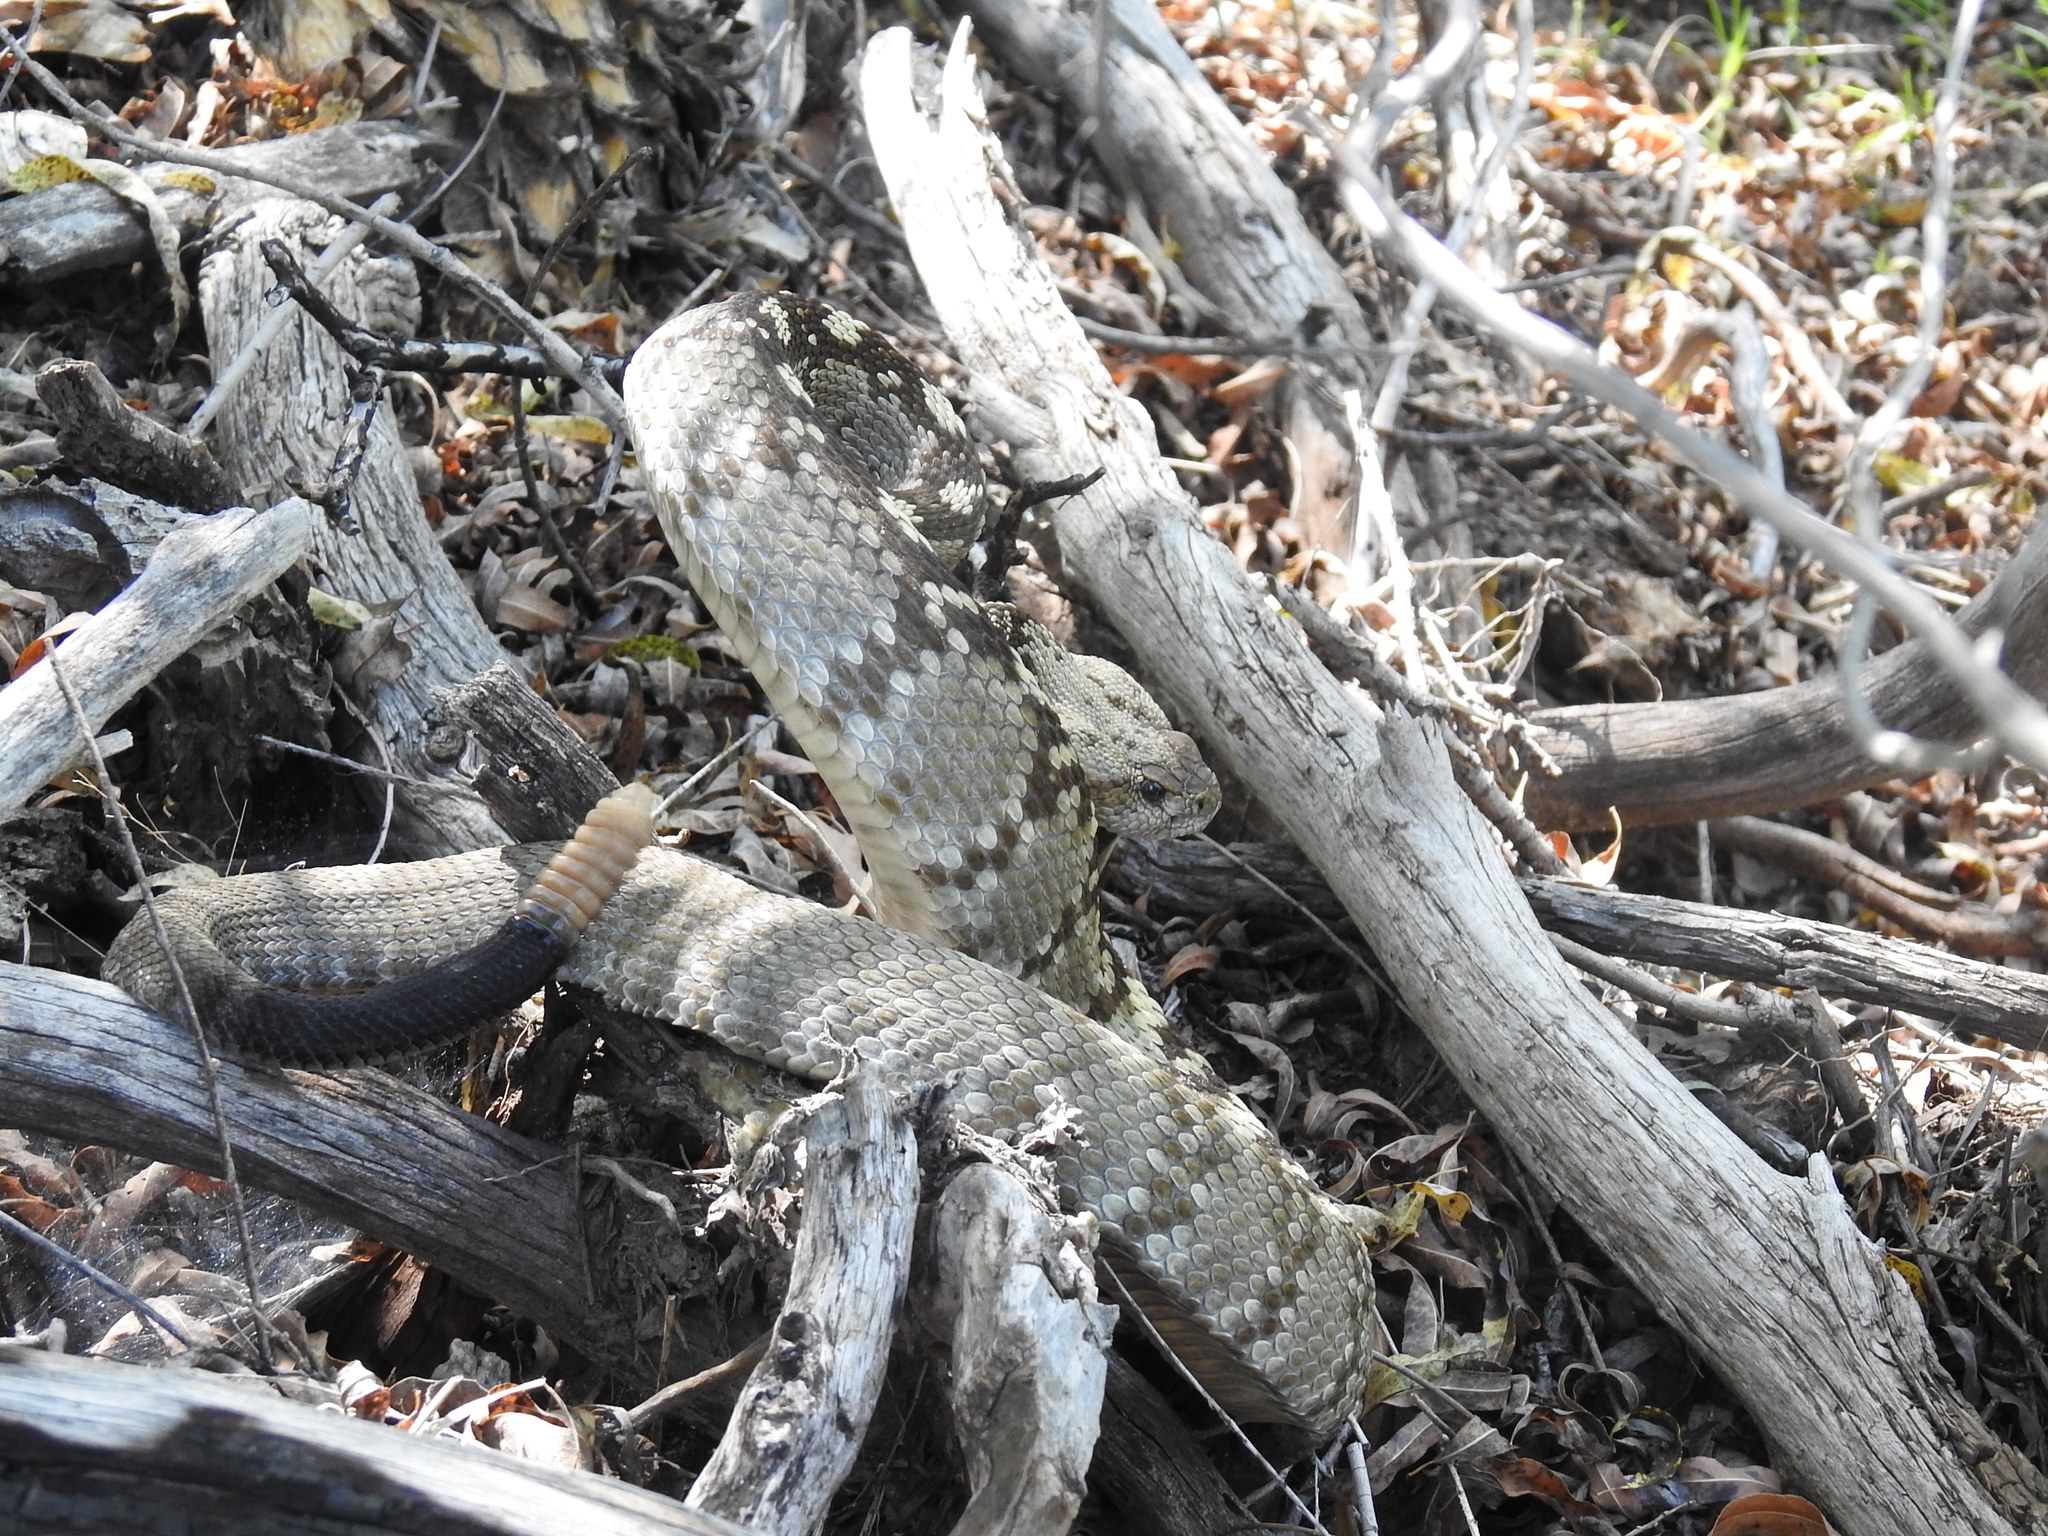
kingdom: Animalia
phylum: Chordata
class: Squamata
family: Viperidae
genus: Crotalus
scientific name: Crotalus ornatus
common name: Black-tailed rattlesnake
